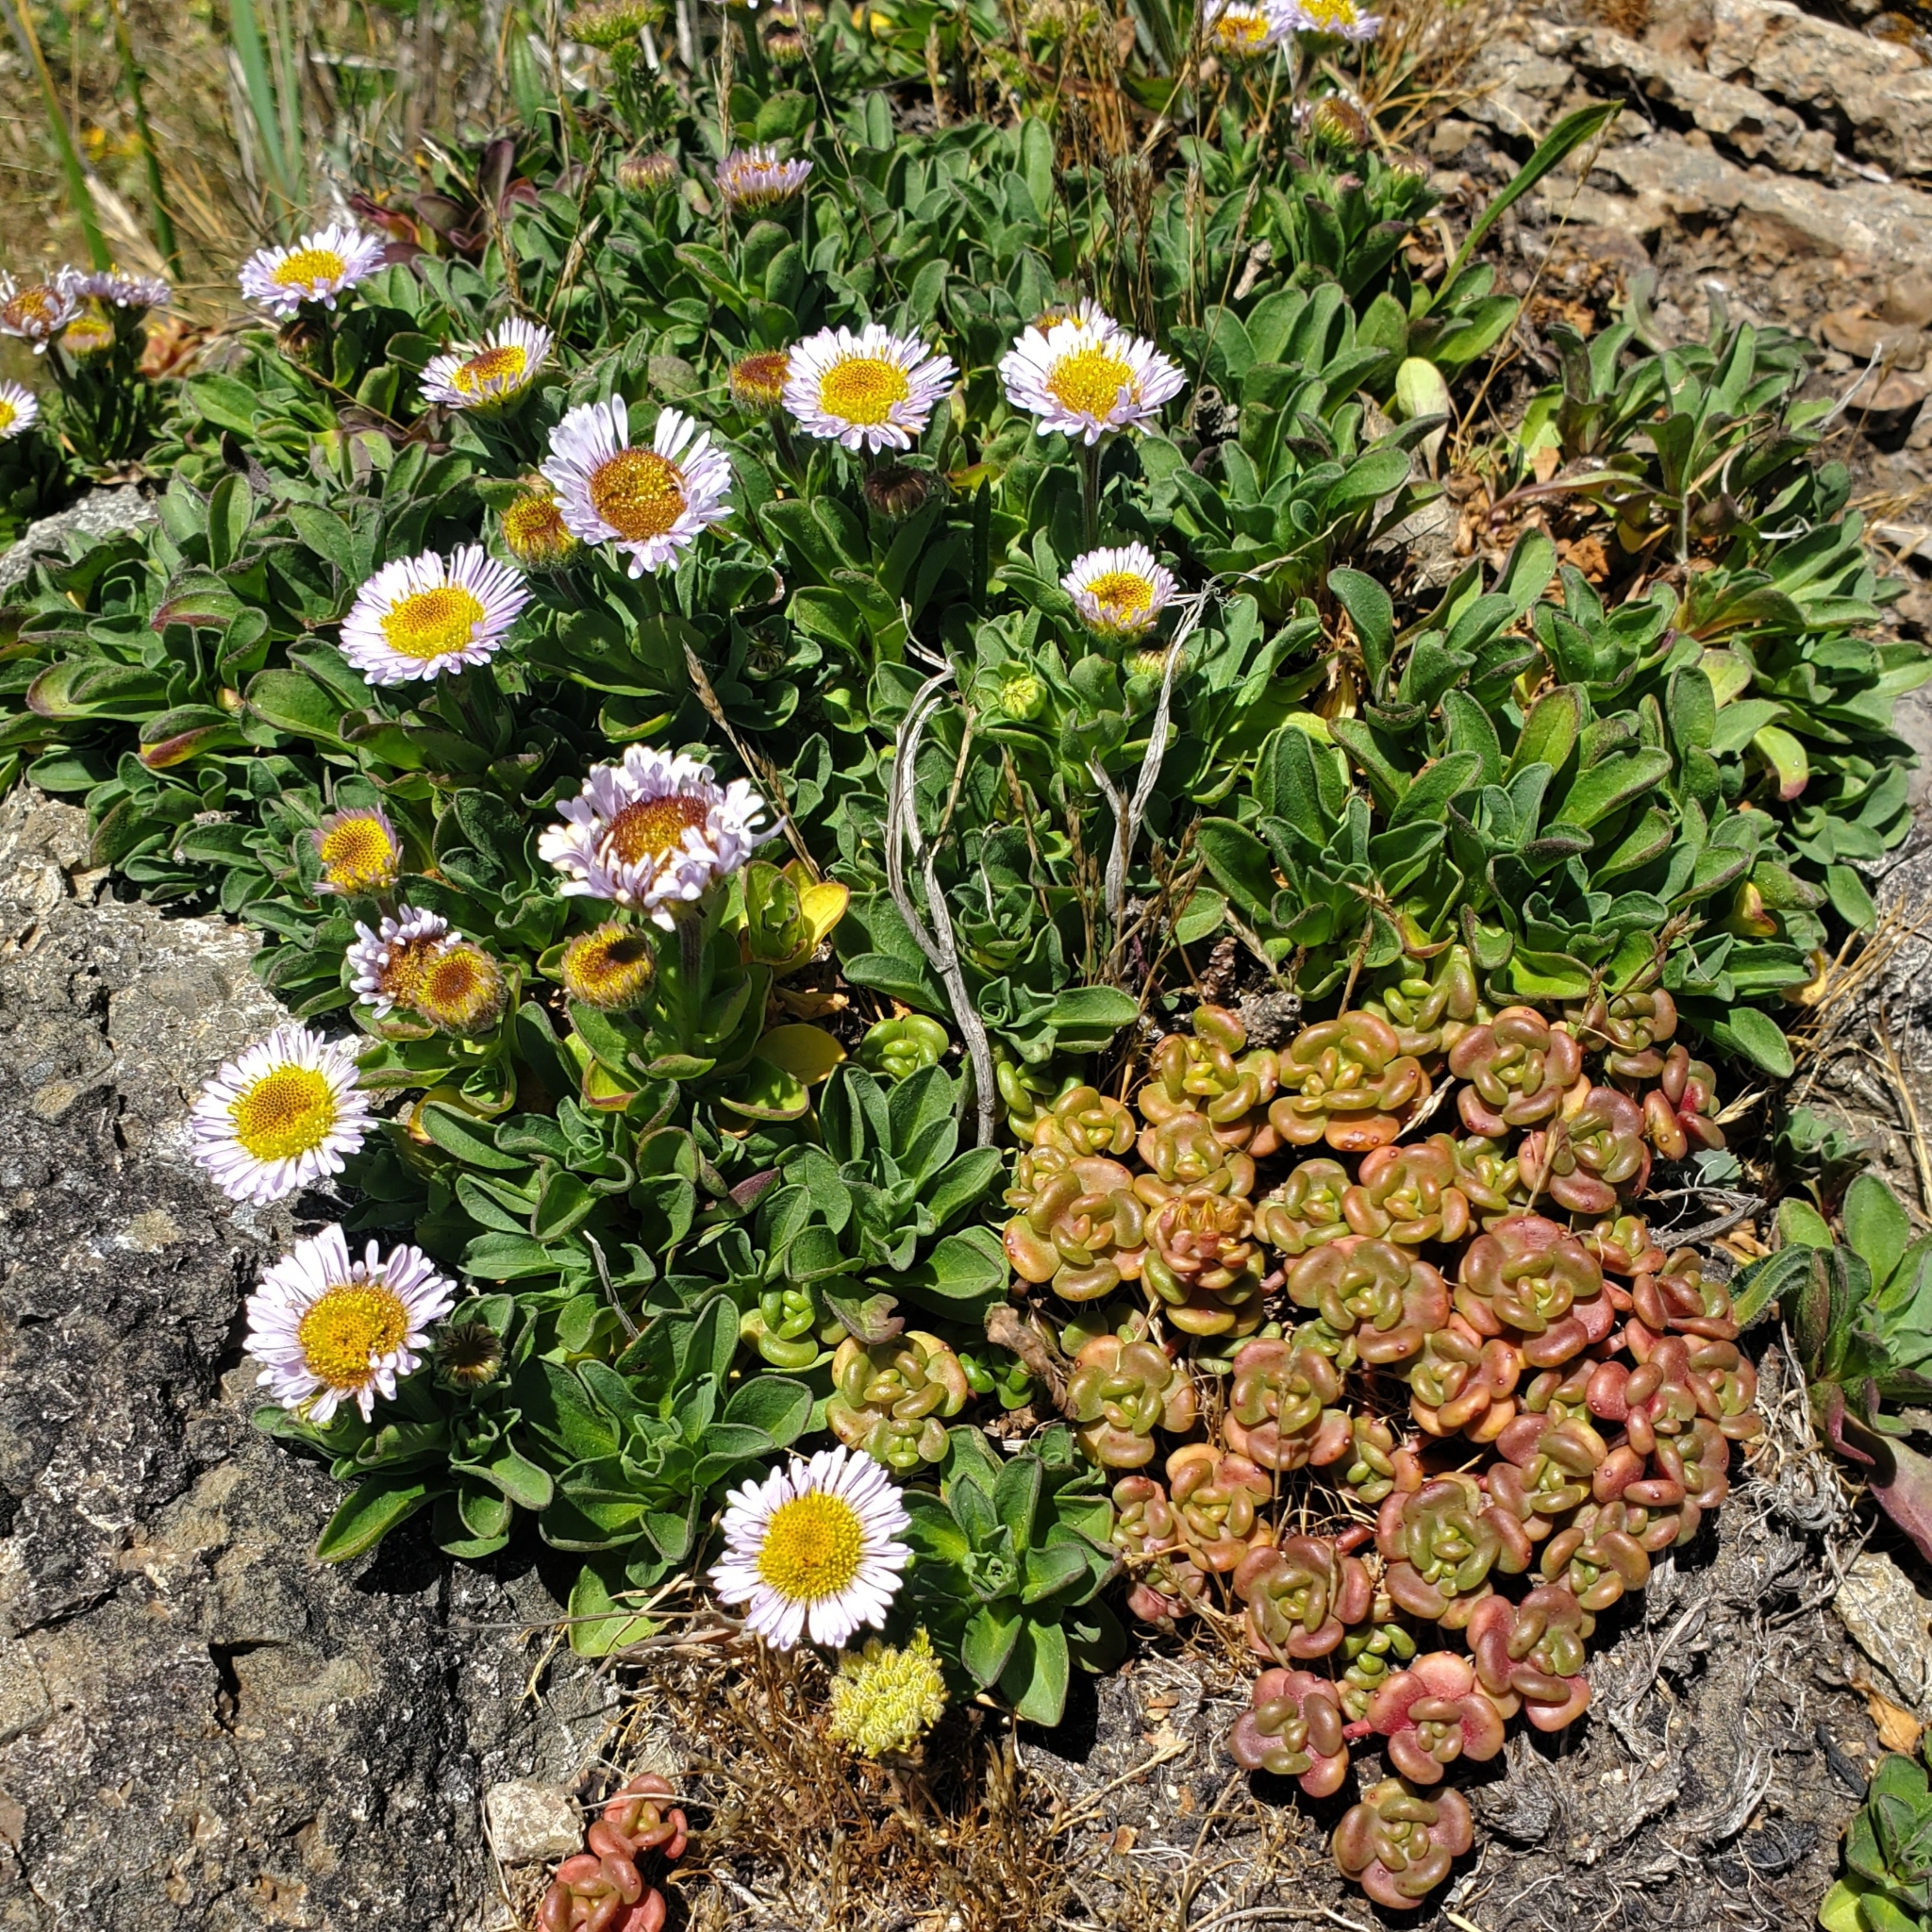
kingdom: Plantae
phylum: Tracheophyta
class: Magnoliopsida
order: Asterales
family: Asteraceae
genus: Erigeron
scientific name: Erigeron glaucus
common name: Seaside daisy
